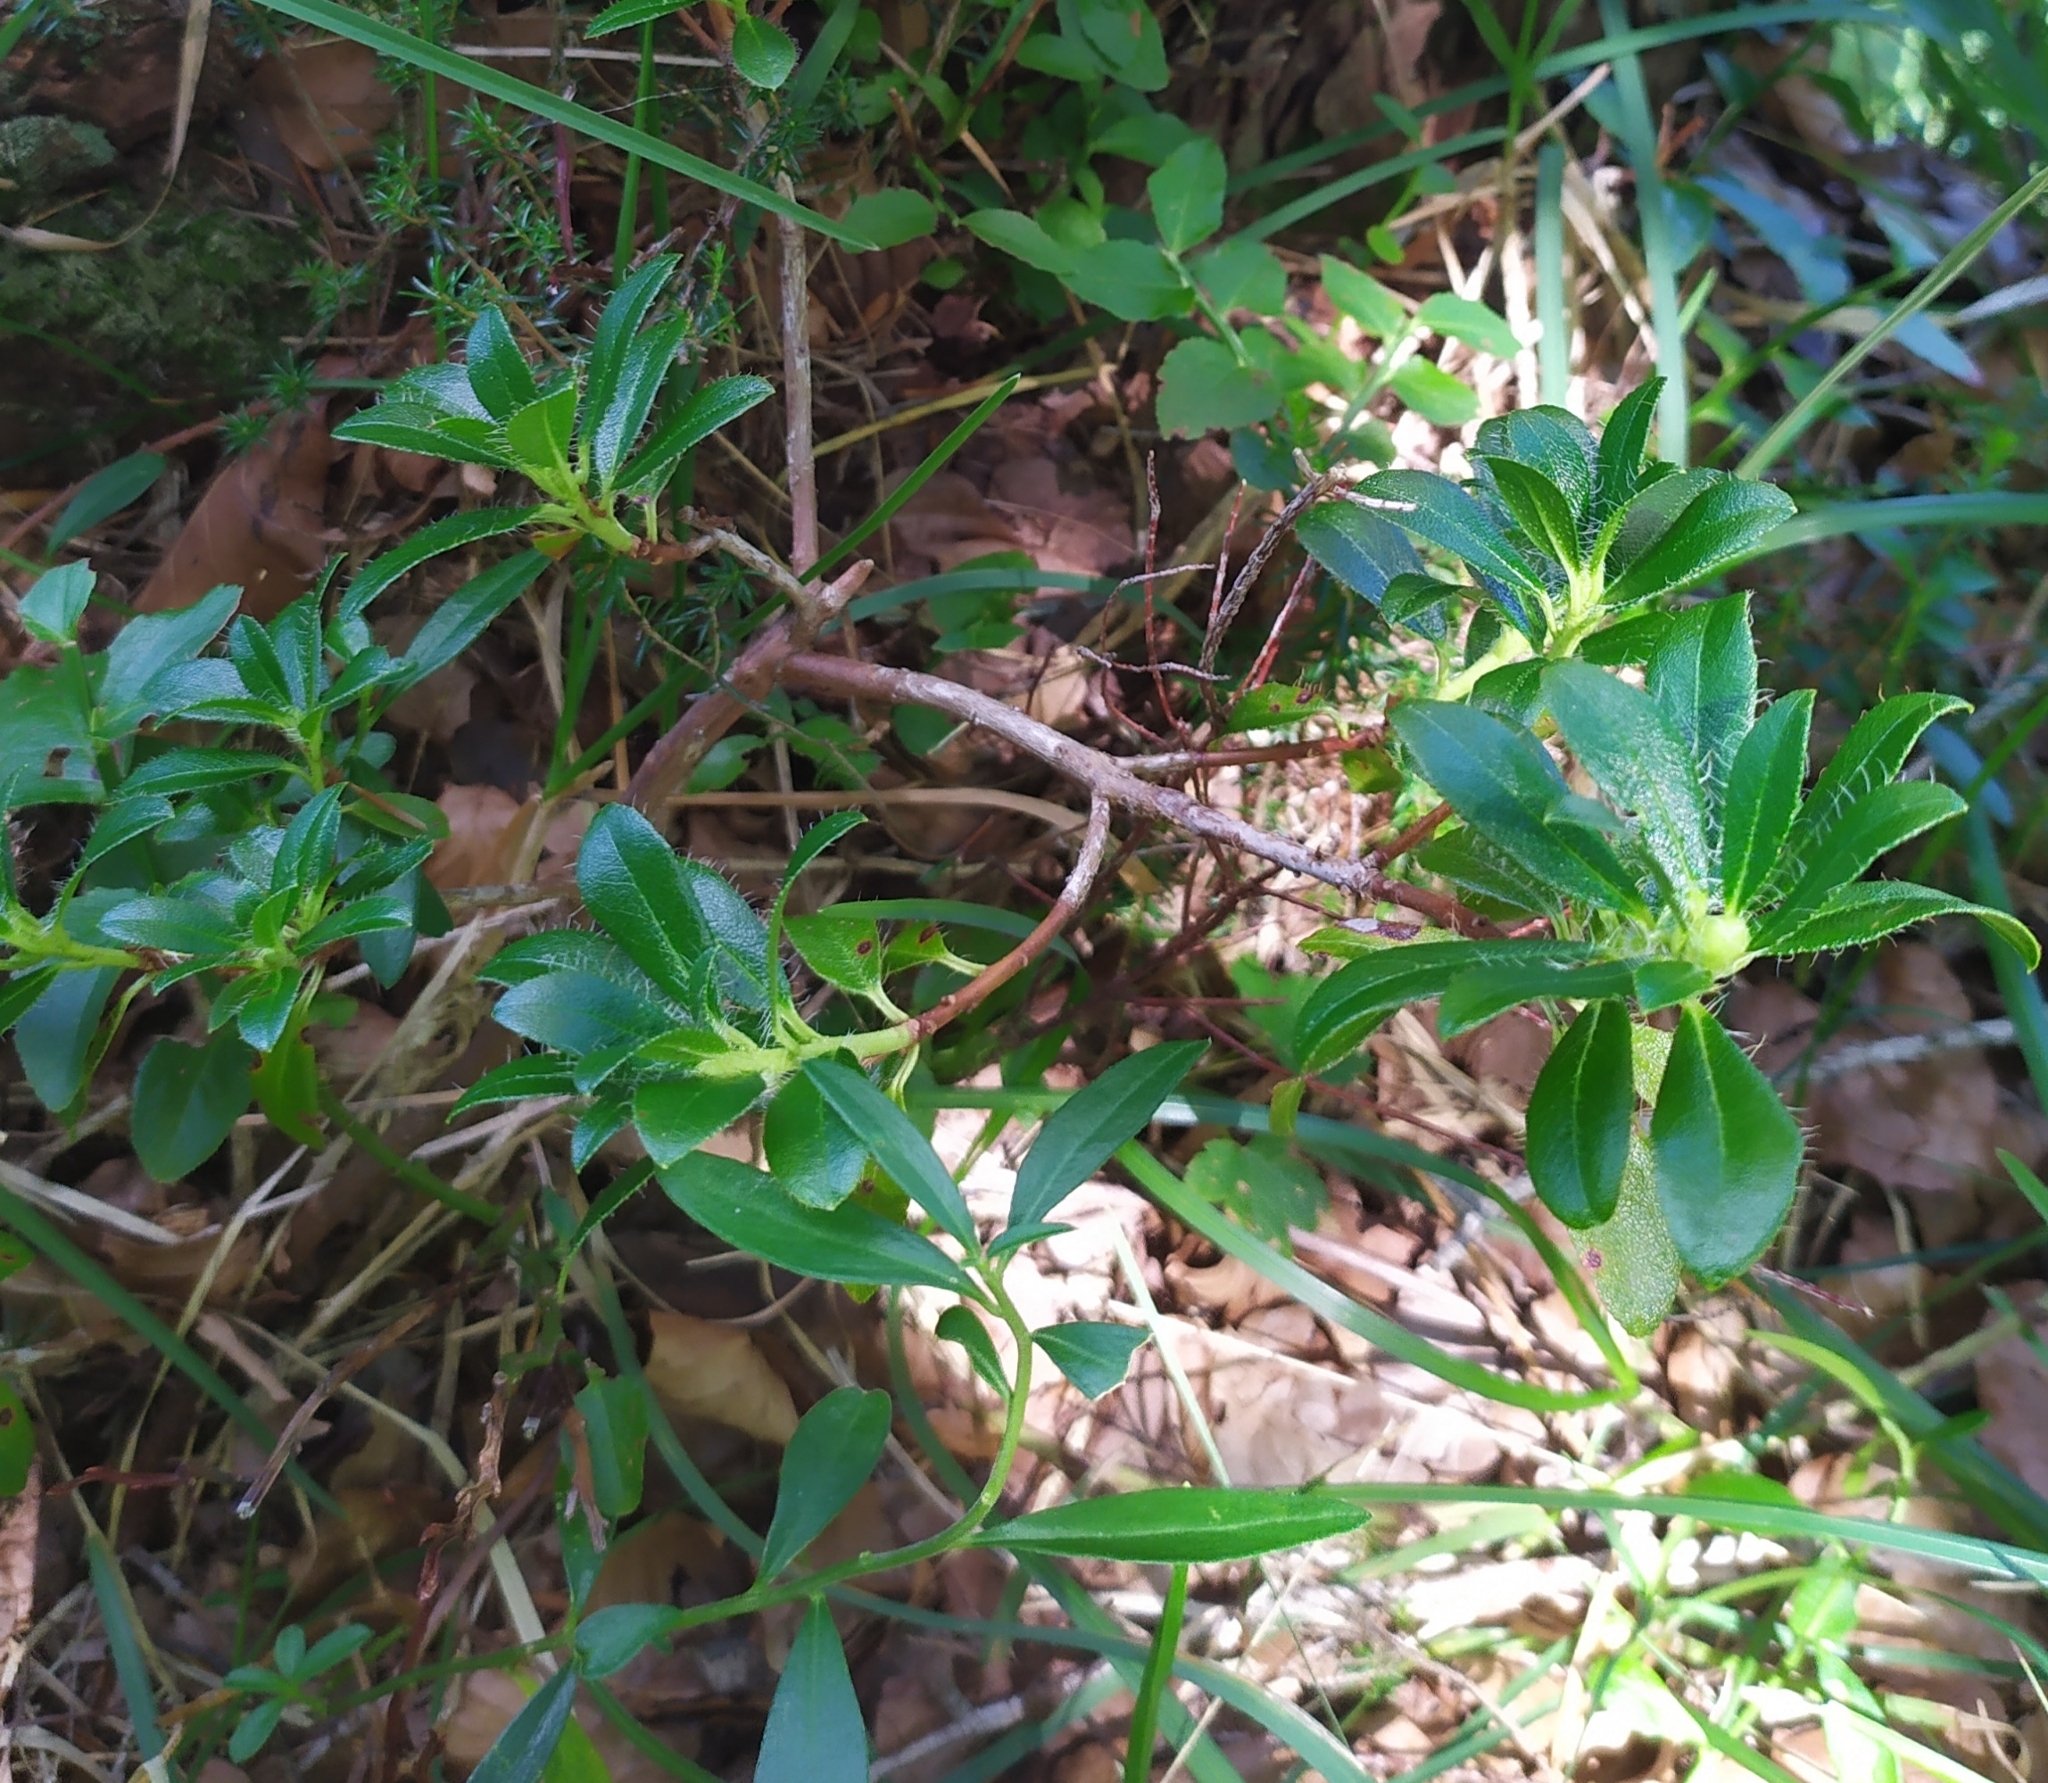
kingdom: Plantae
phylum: Tracheophyta
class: Magnoliopsida
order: Ericales
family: Ericaceae
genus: Rhododendron
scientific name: Rhododendron hirsutum
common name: Hairy alpenrose
